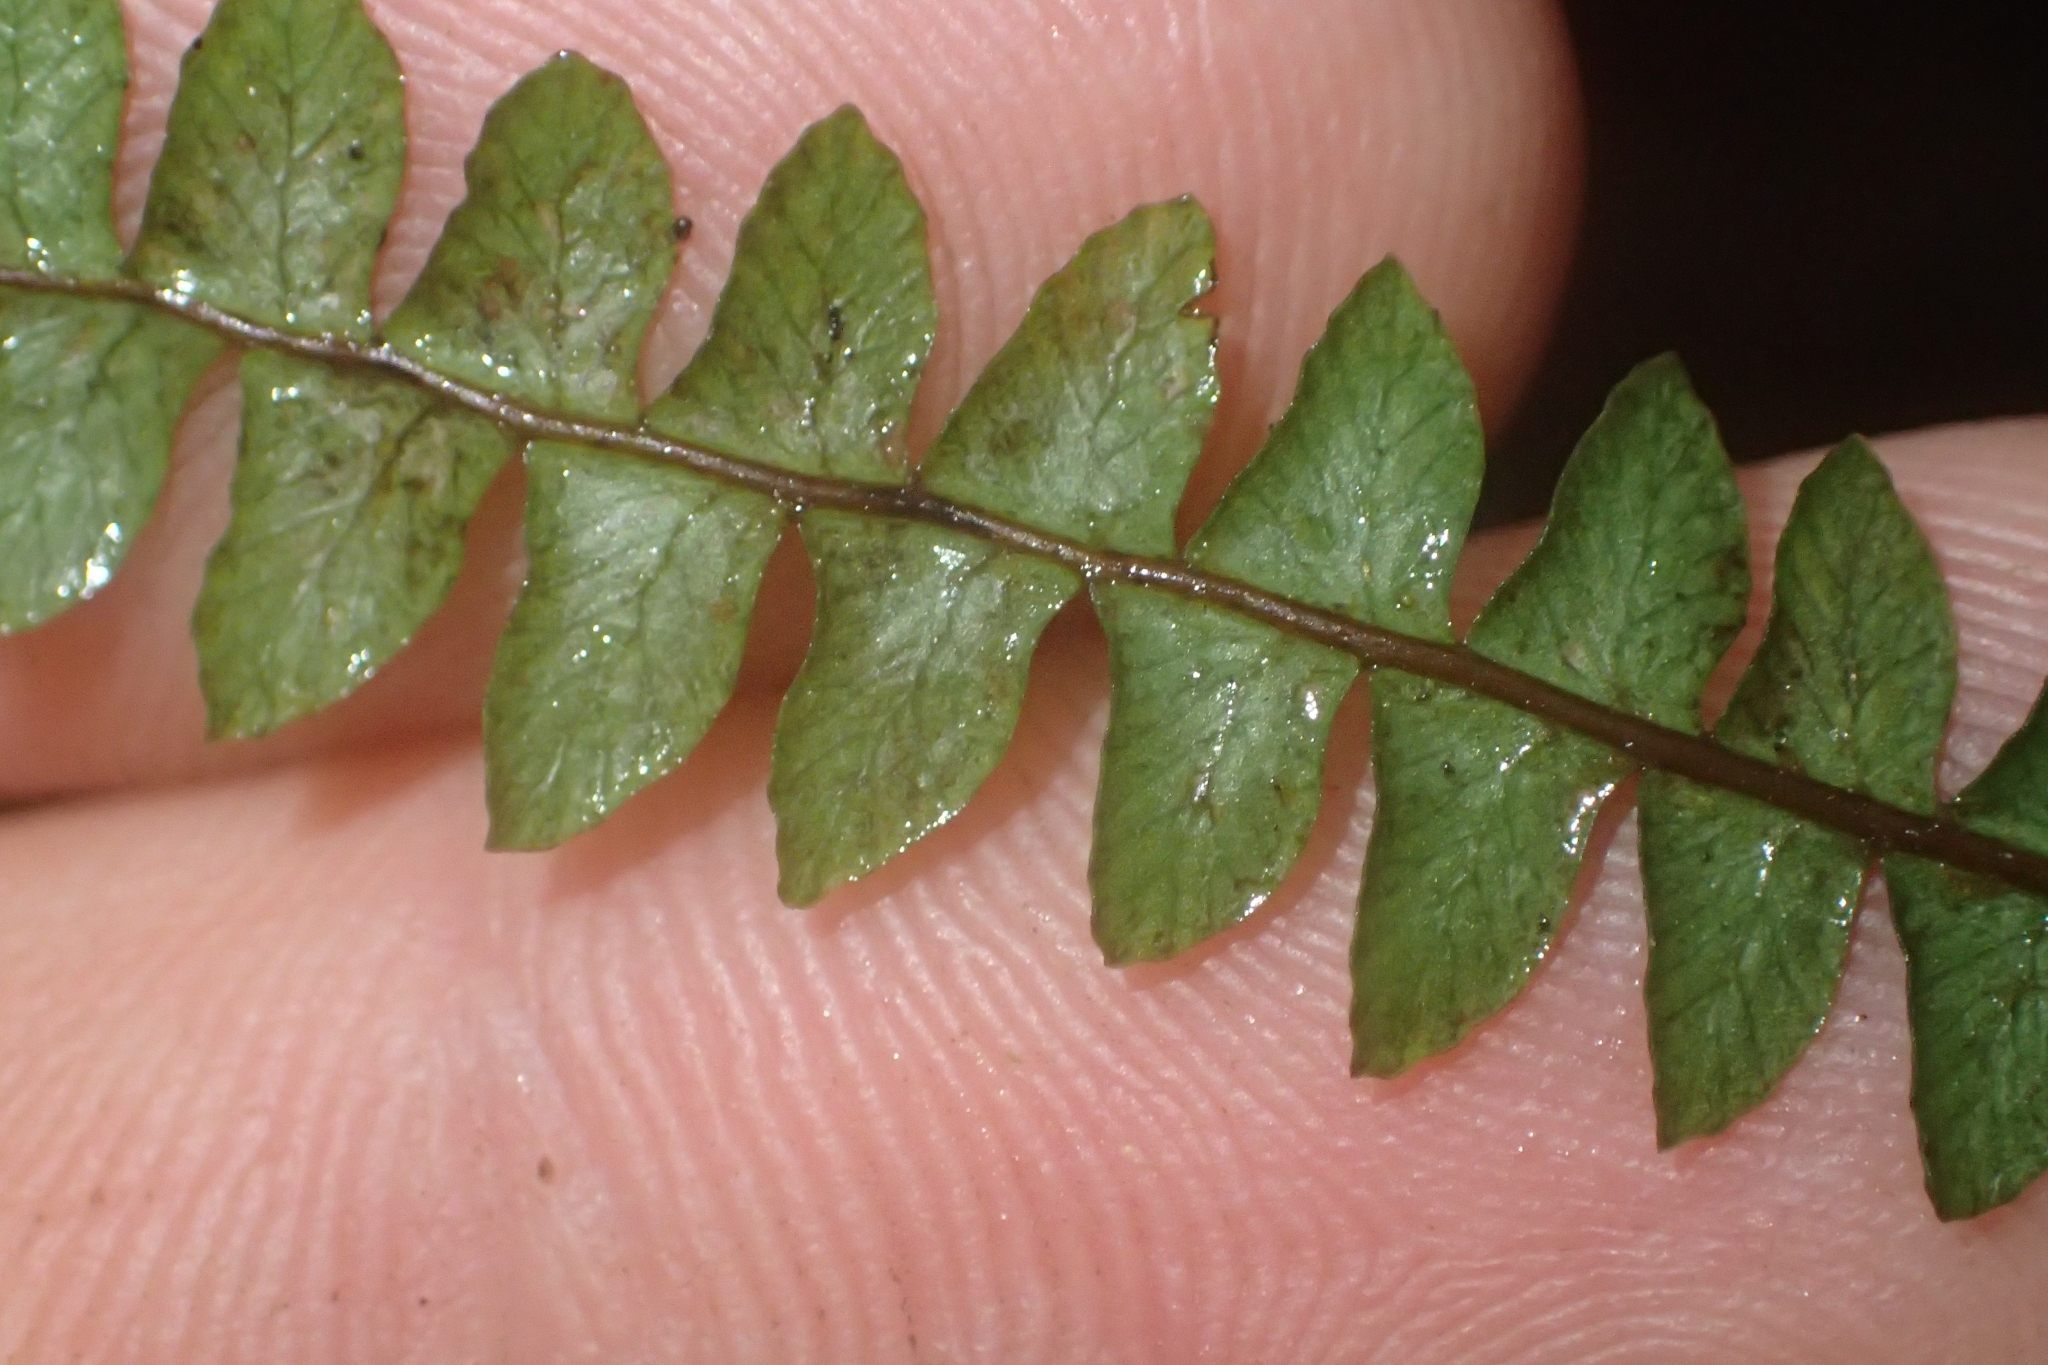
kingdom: Plantae
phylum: Tracheophyta
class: Polypodiopsida
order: Polypodiales
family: Blechnaceae
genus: Austroblechnum
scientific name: Austroblechnum penna-marina
